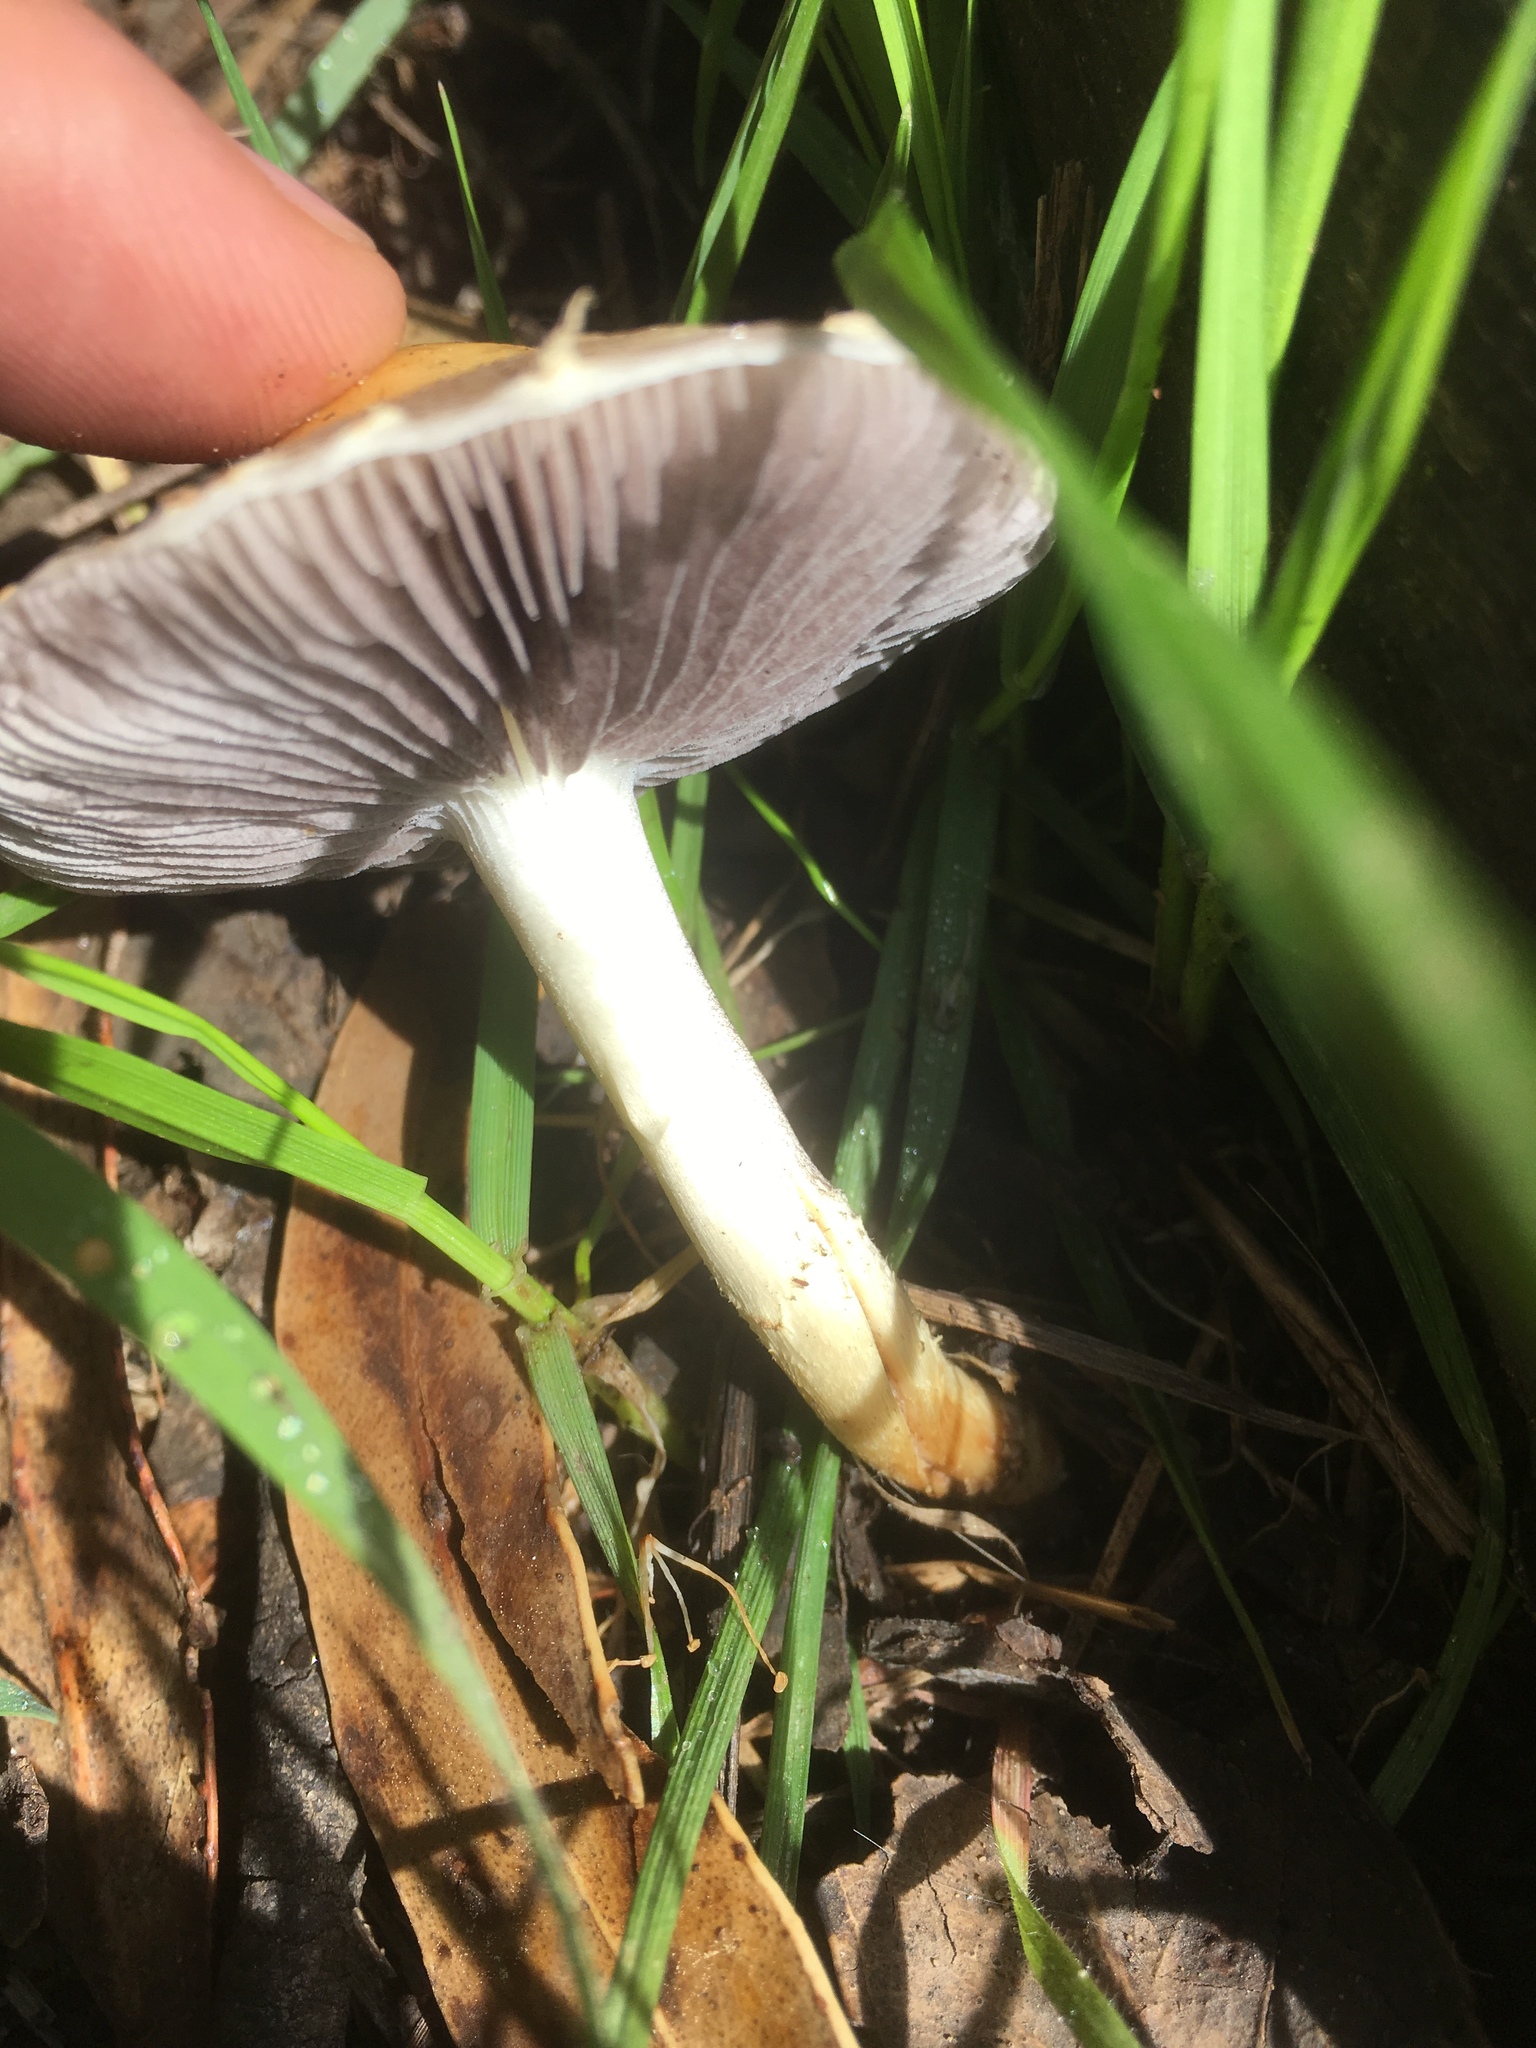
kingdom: Fungi
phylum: Basidiomycota
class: Agaricomycetes
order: Agaricales
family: Strophariaceae
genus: Leratiomyces
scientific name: Leratiomyces percevalii
